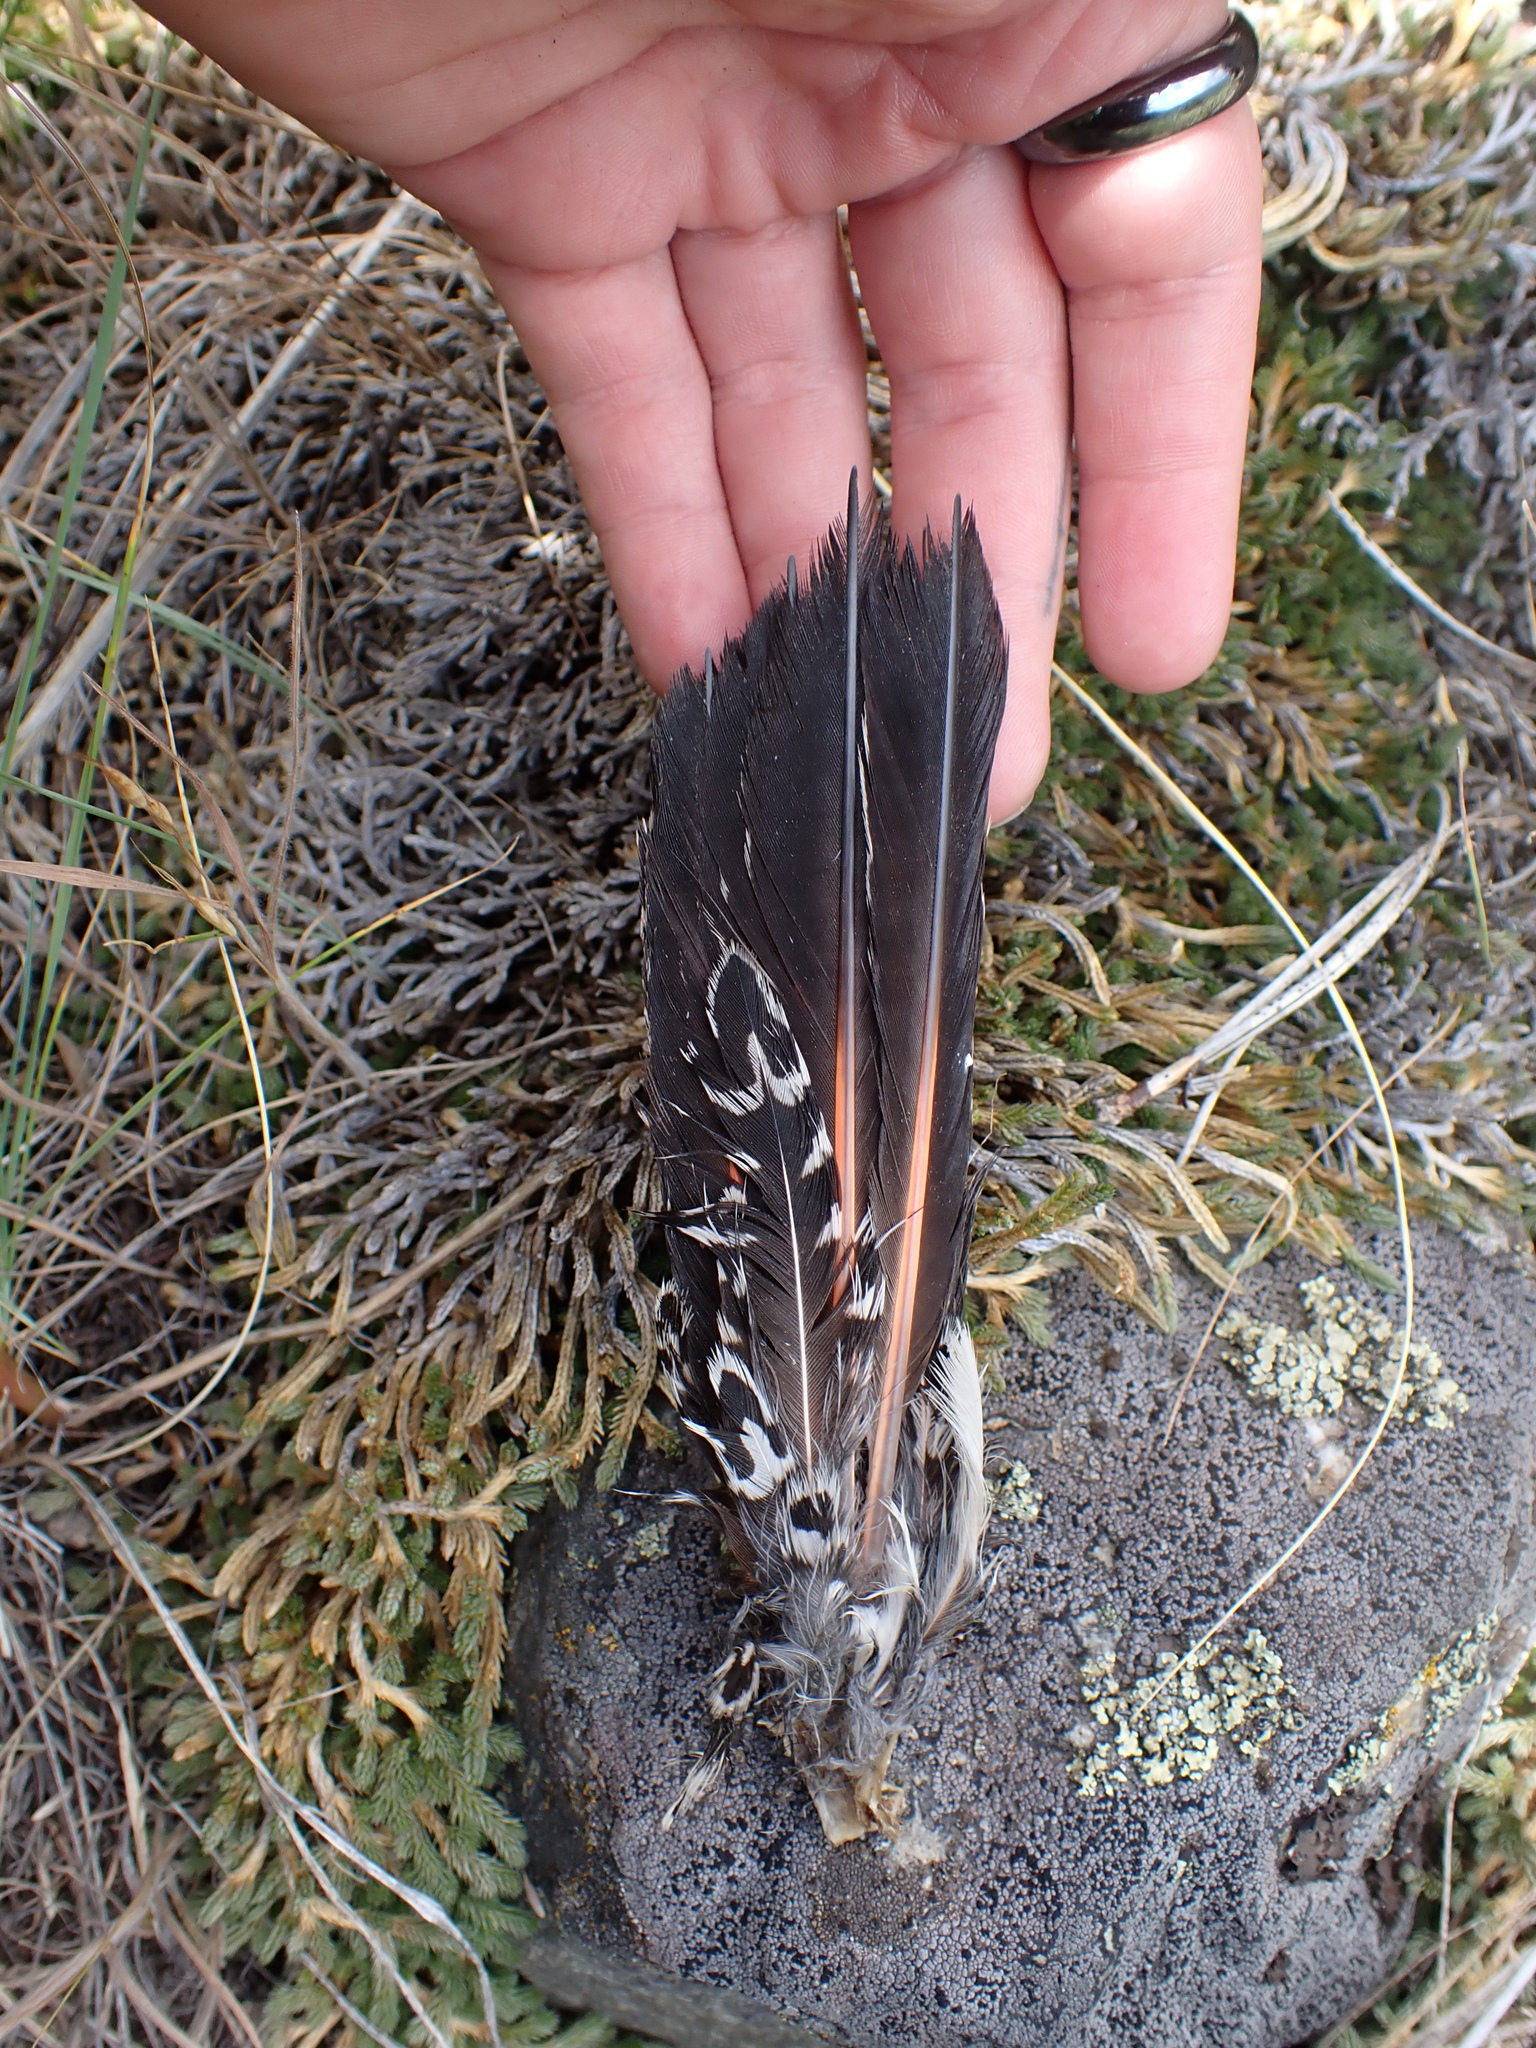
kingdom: Animalia
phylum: Chordata
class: Aves
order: Piciformes
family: Picidae
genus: Colaptes
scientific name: Colaptes auratus
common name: Northern flicker
